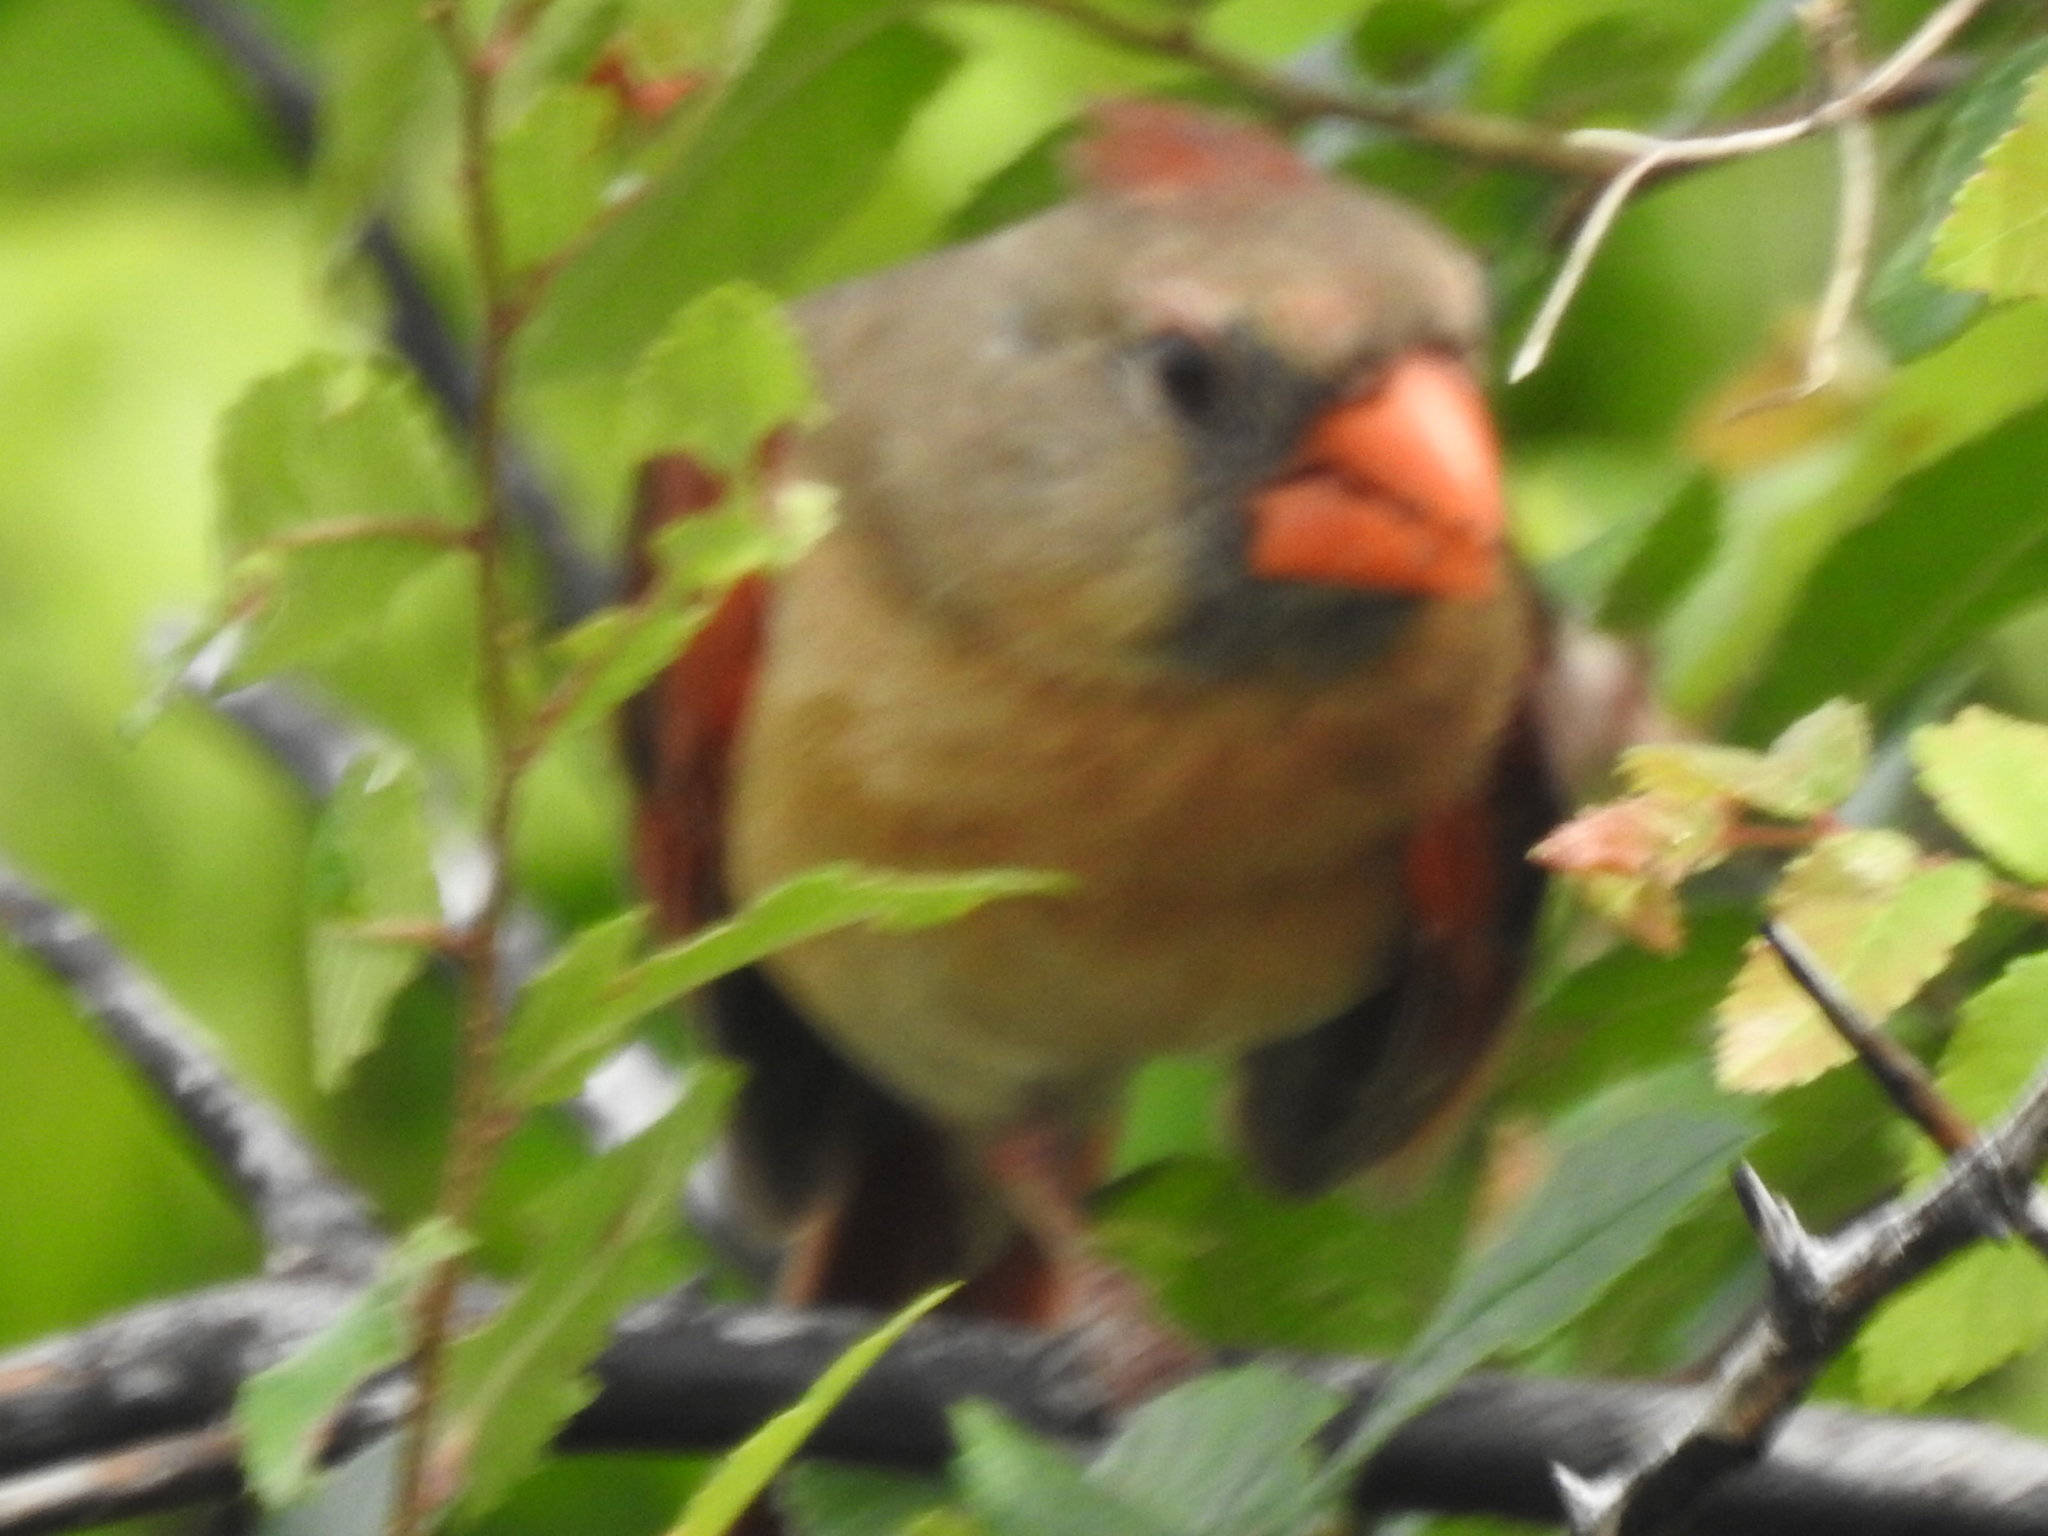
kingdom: Animalia
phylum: Chordata
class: Aves
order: Passeriformes
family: Cardinalidae
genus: Cardinalis
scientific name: Cardinalis cardinalis
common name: Northern cardinal
